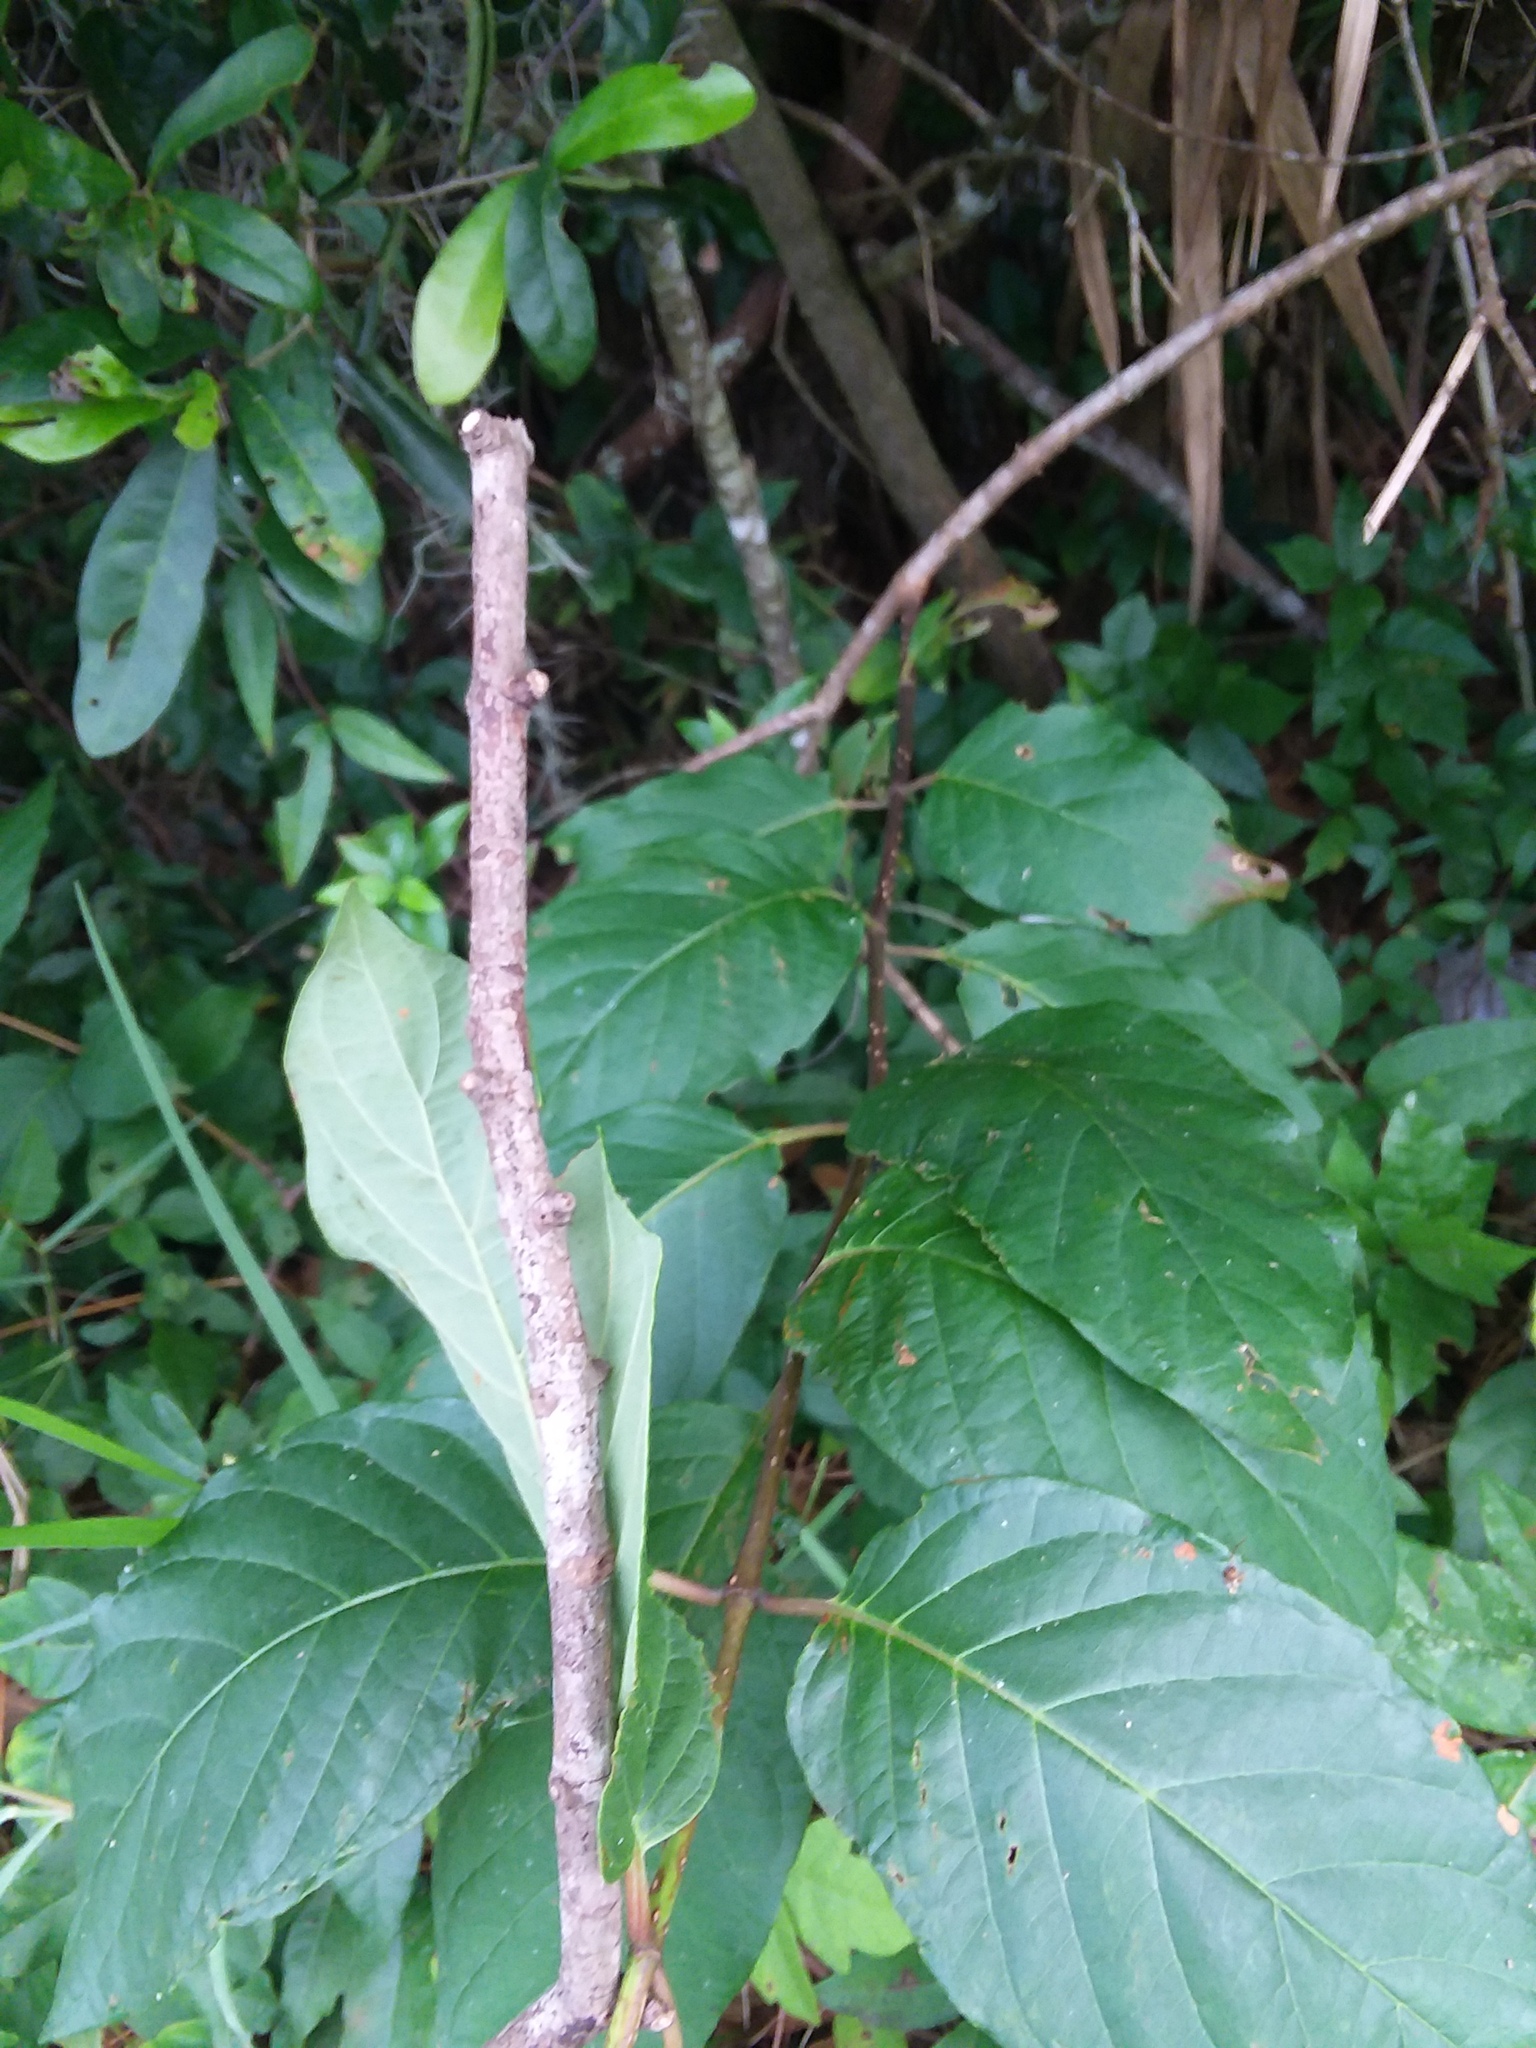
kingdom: Plantae
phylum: Tracheophyta
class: Magnoliopsida
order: Gentianales
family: Rubiaceae
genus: Cephalanthus
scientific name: Cephalanthus occidentalis
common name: Button-willow
